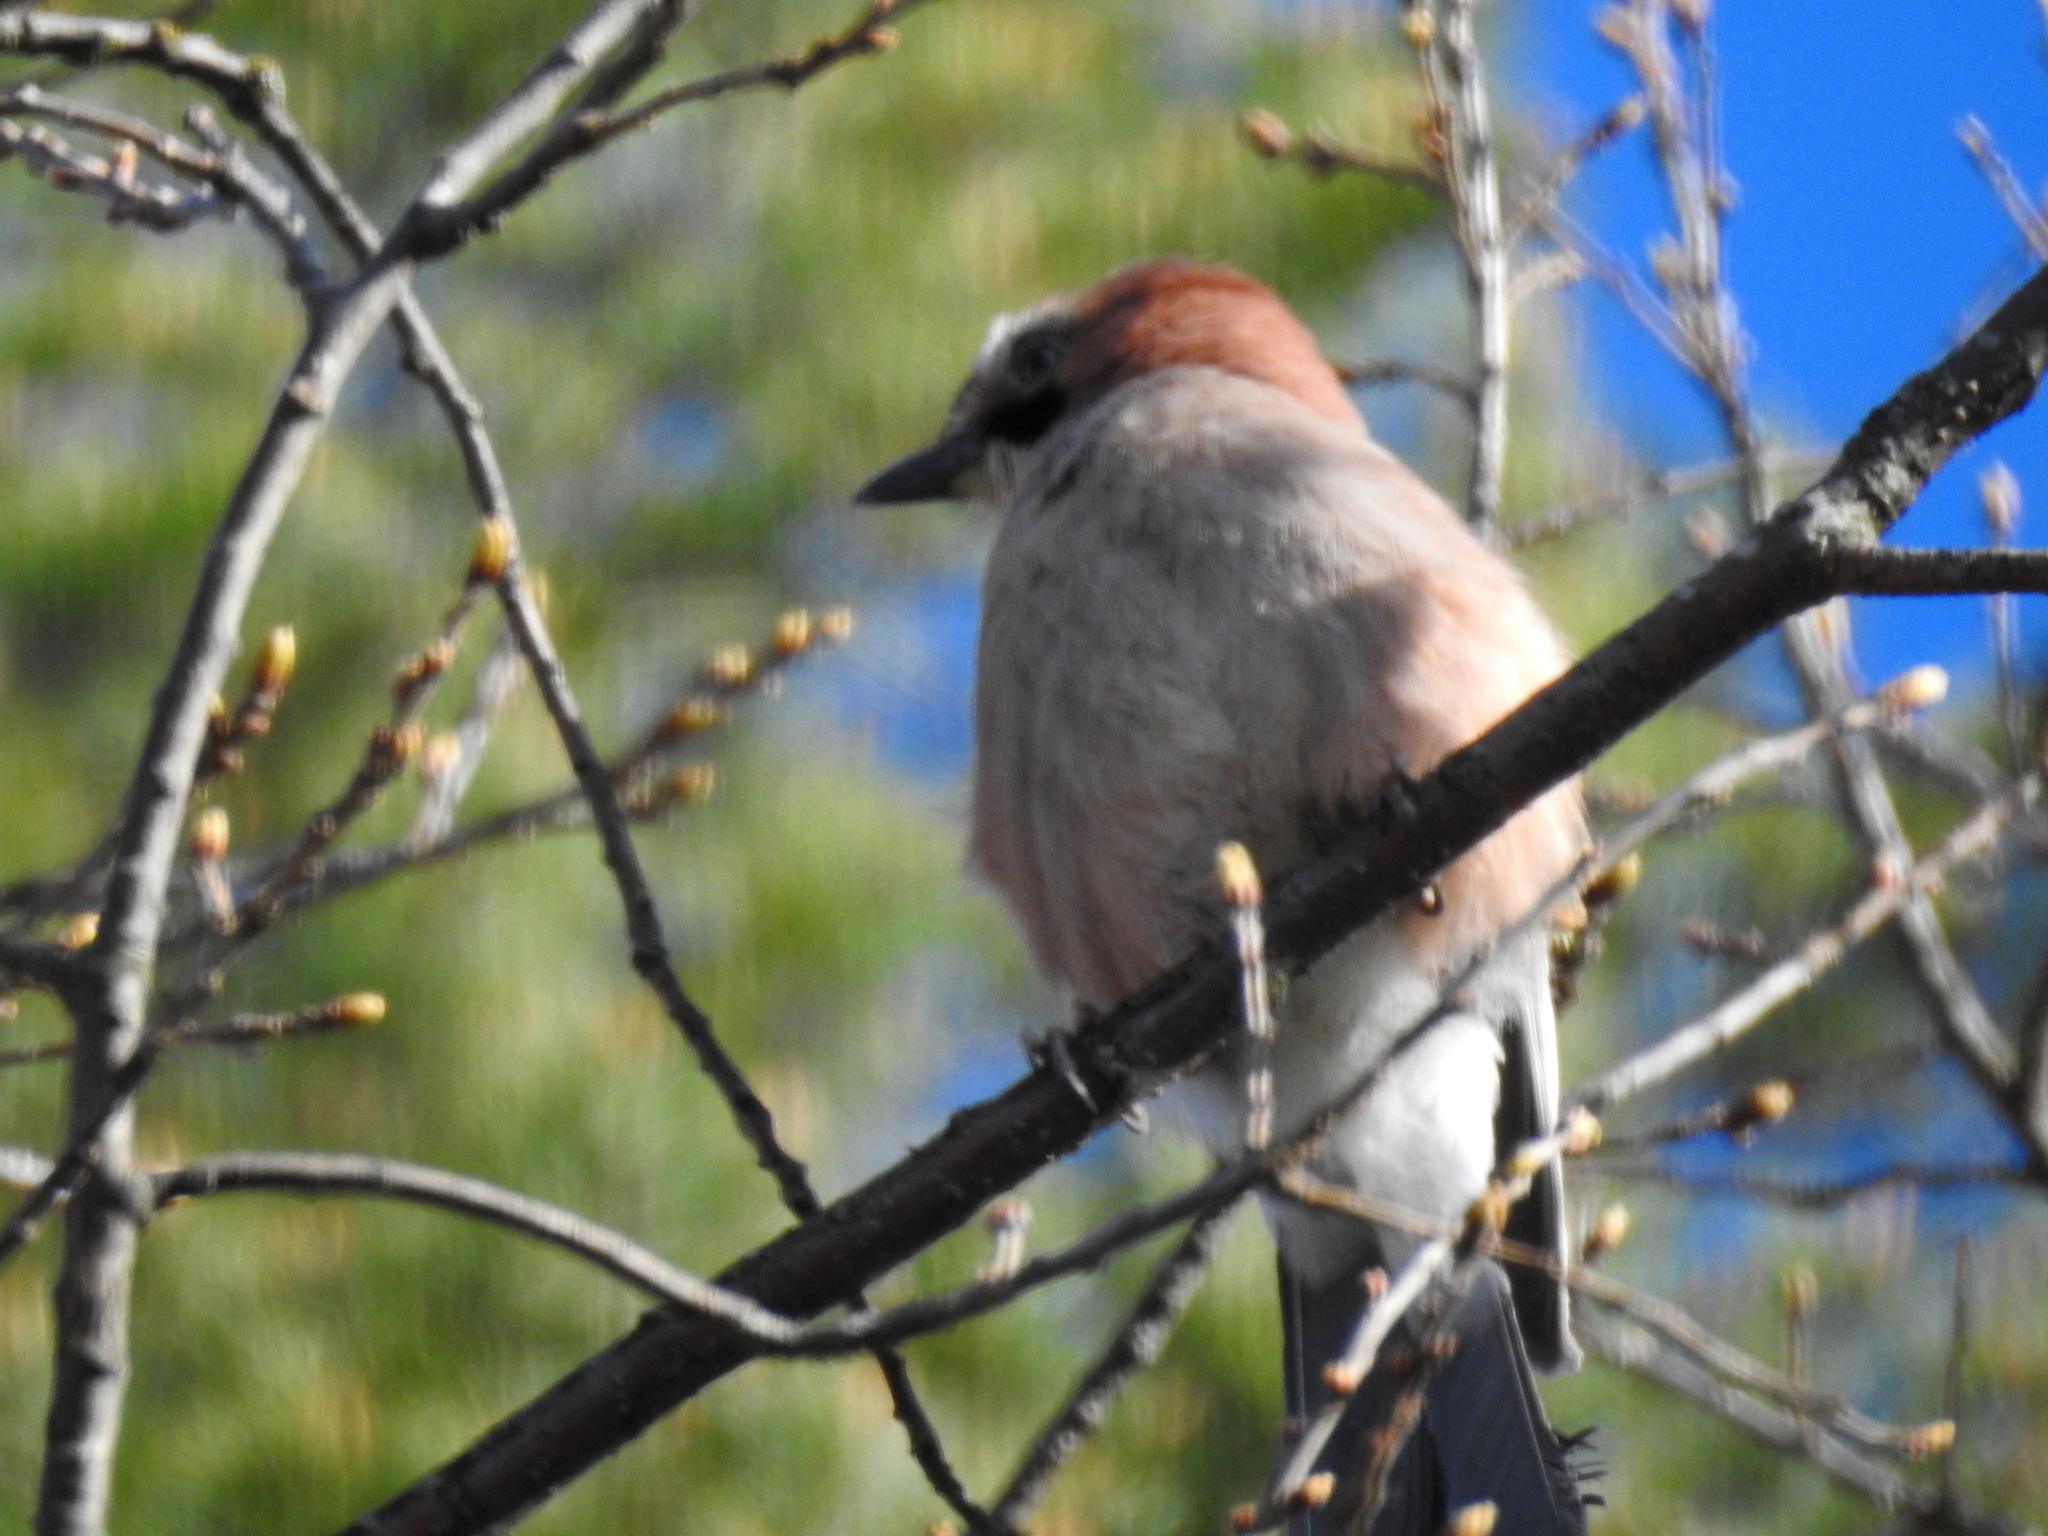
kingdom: Animalia
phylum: Chordata
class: Aves
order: Passeriformes
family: Corvidae
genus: Garrulus
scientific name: Garrulus glandarius
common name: Eurasian jay
